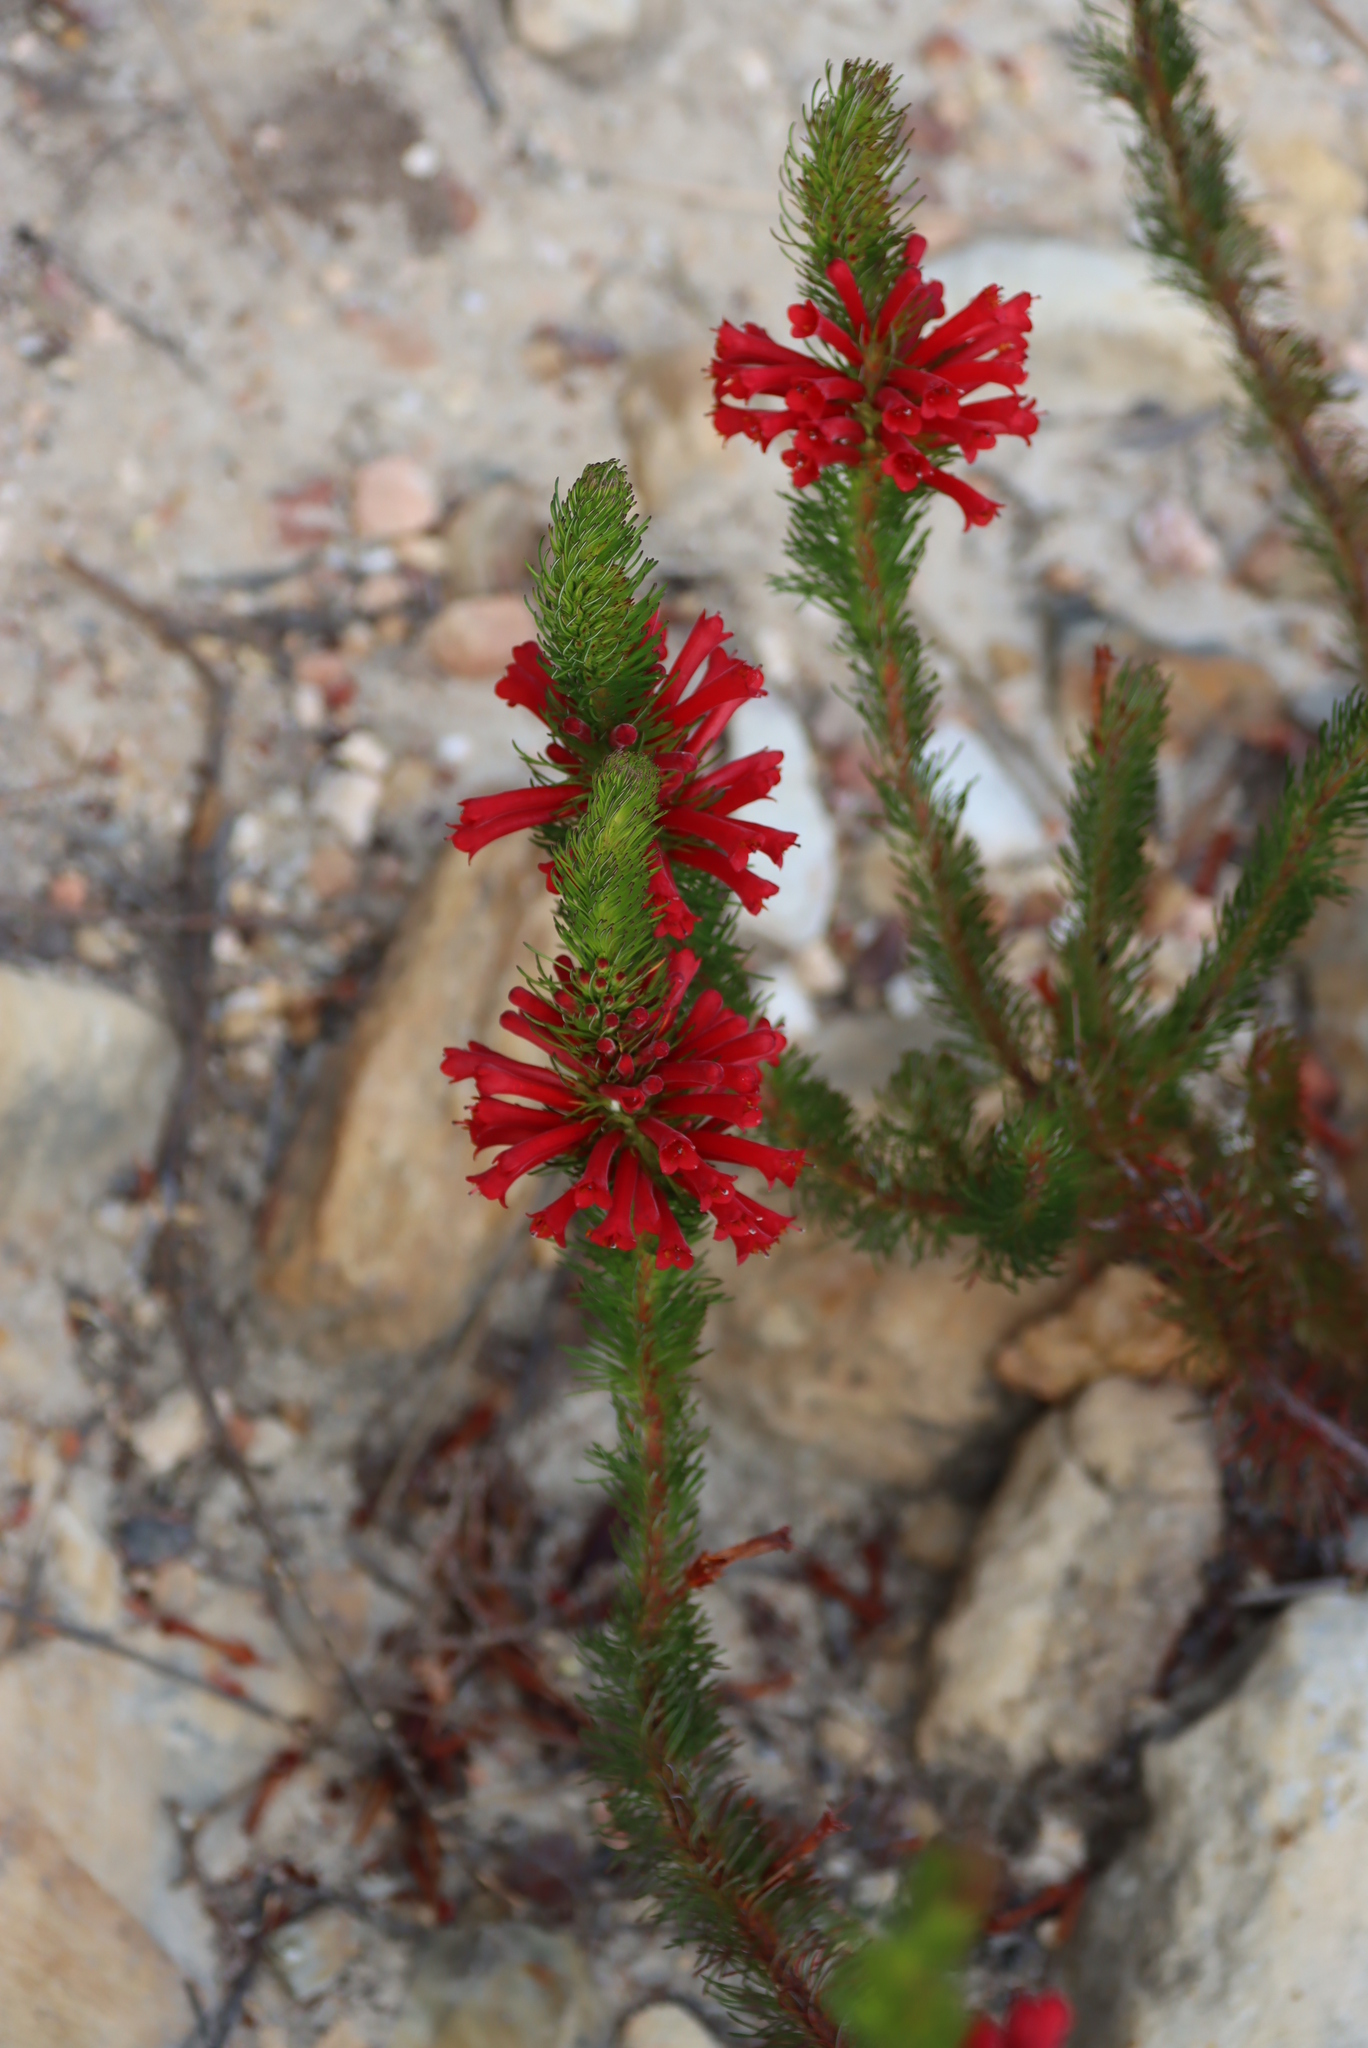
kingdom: Plantae
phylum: Tracheophyta
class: Magnoliopsida
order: Ericales
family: Ericaceae
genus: Erica
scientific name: Erica vestita
